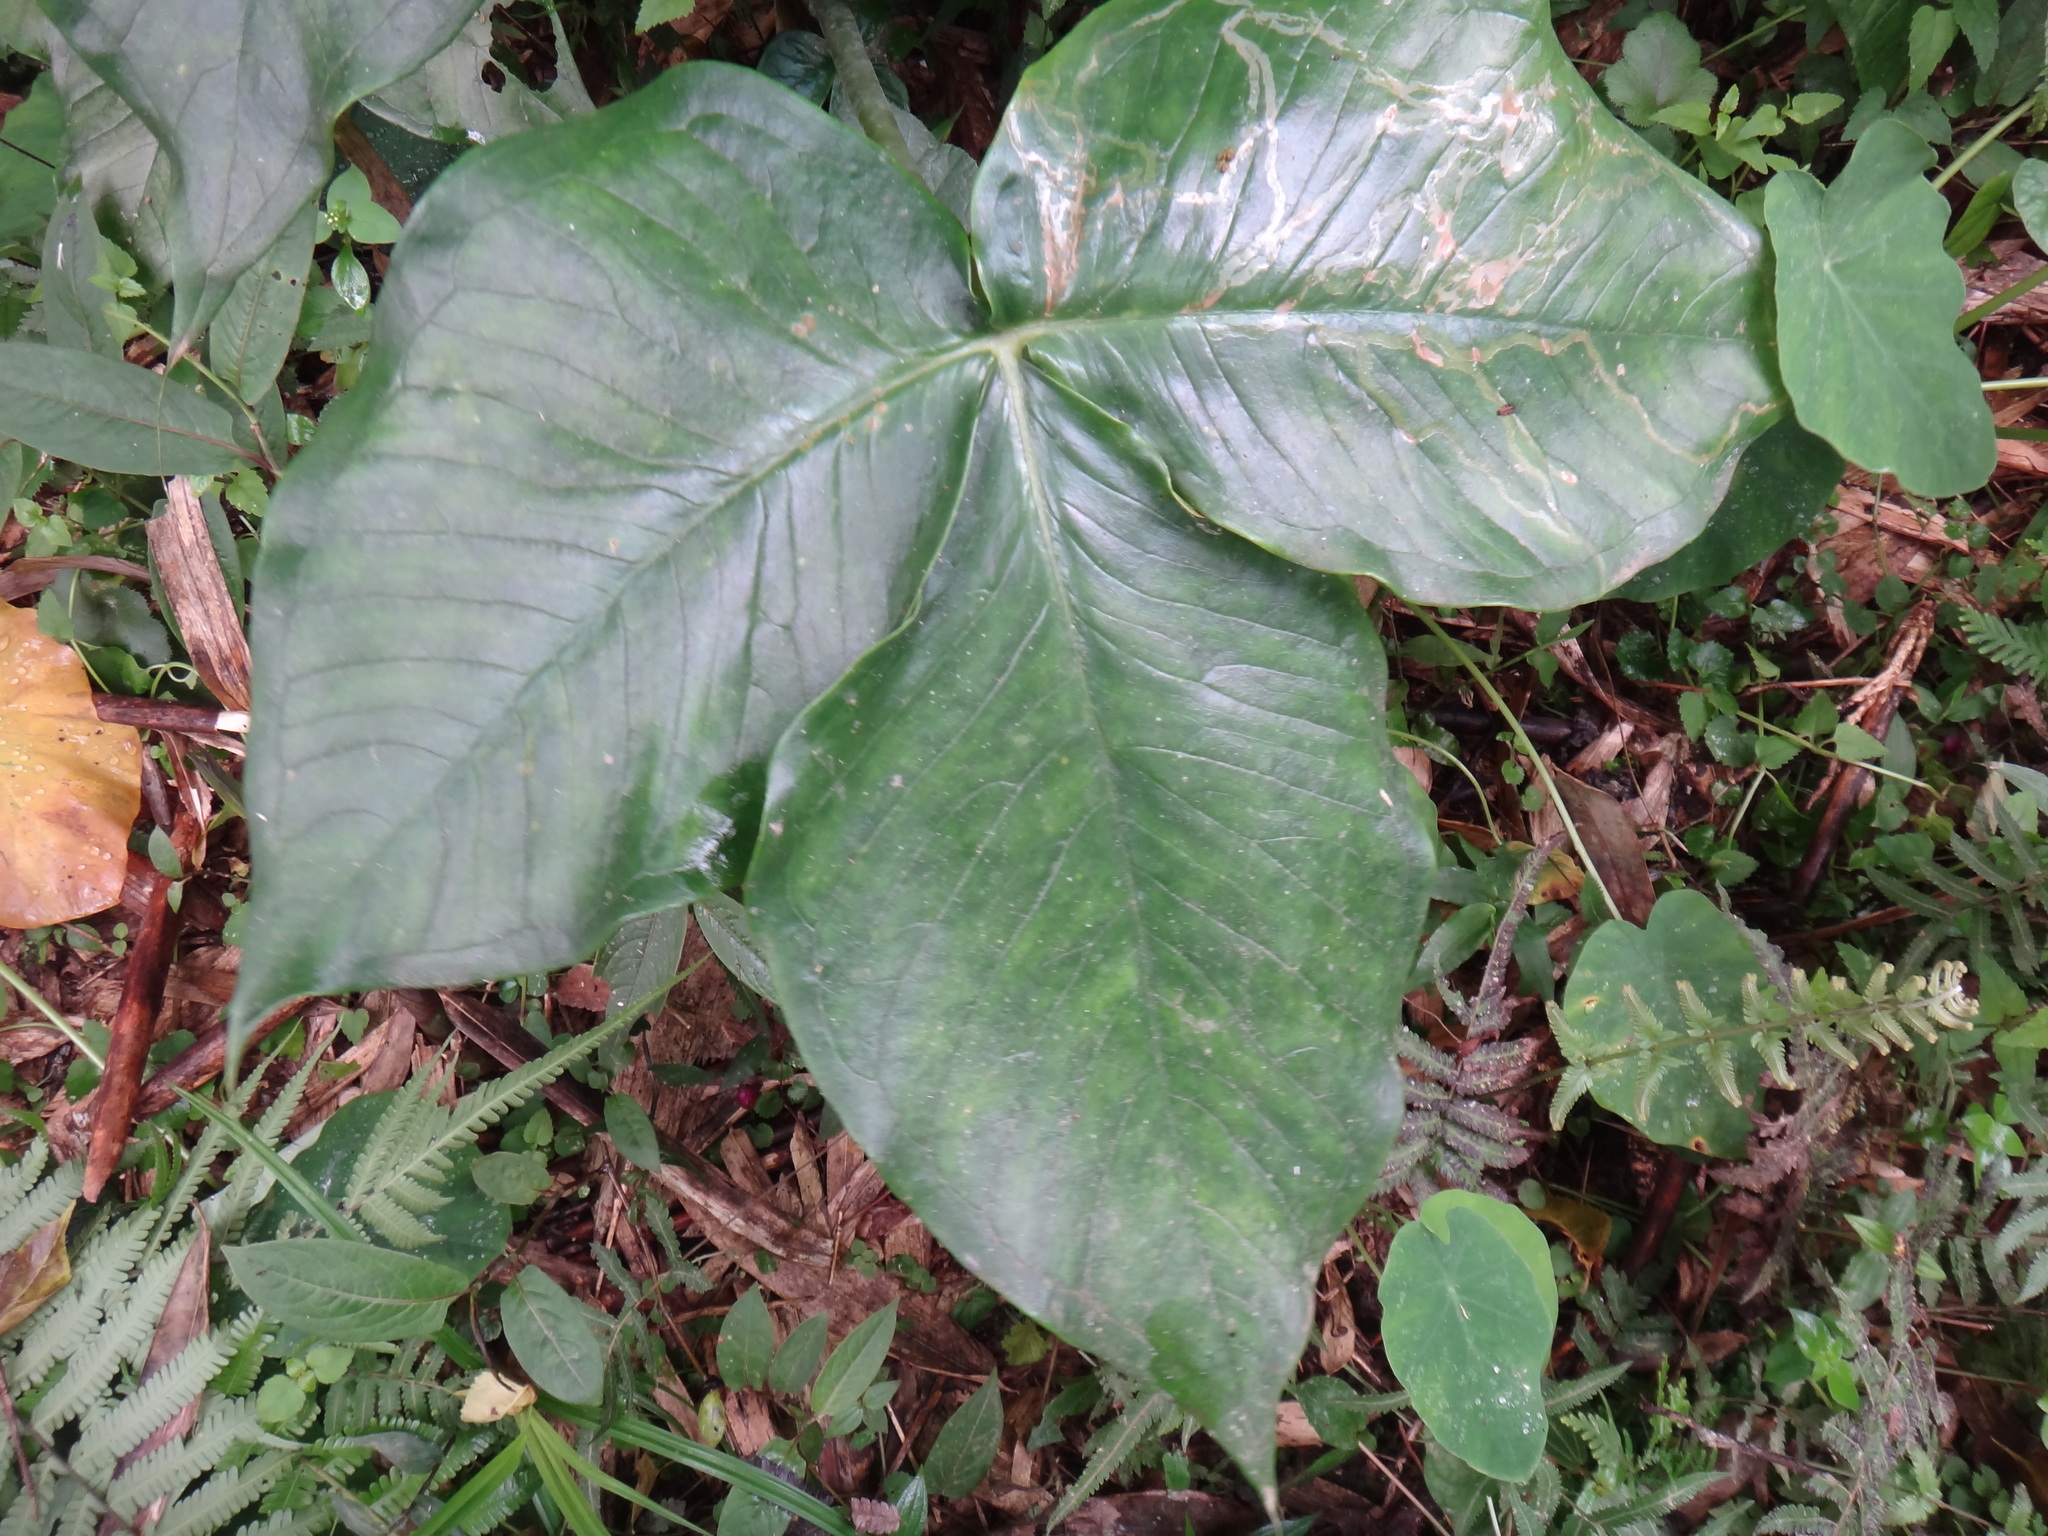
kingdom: Plantae
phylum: Tracheophyta
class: Liliopsida
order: Alismatales
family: Araceae
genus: Arisaema
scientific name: Arisaema ringens
